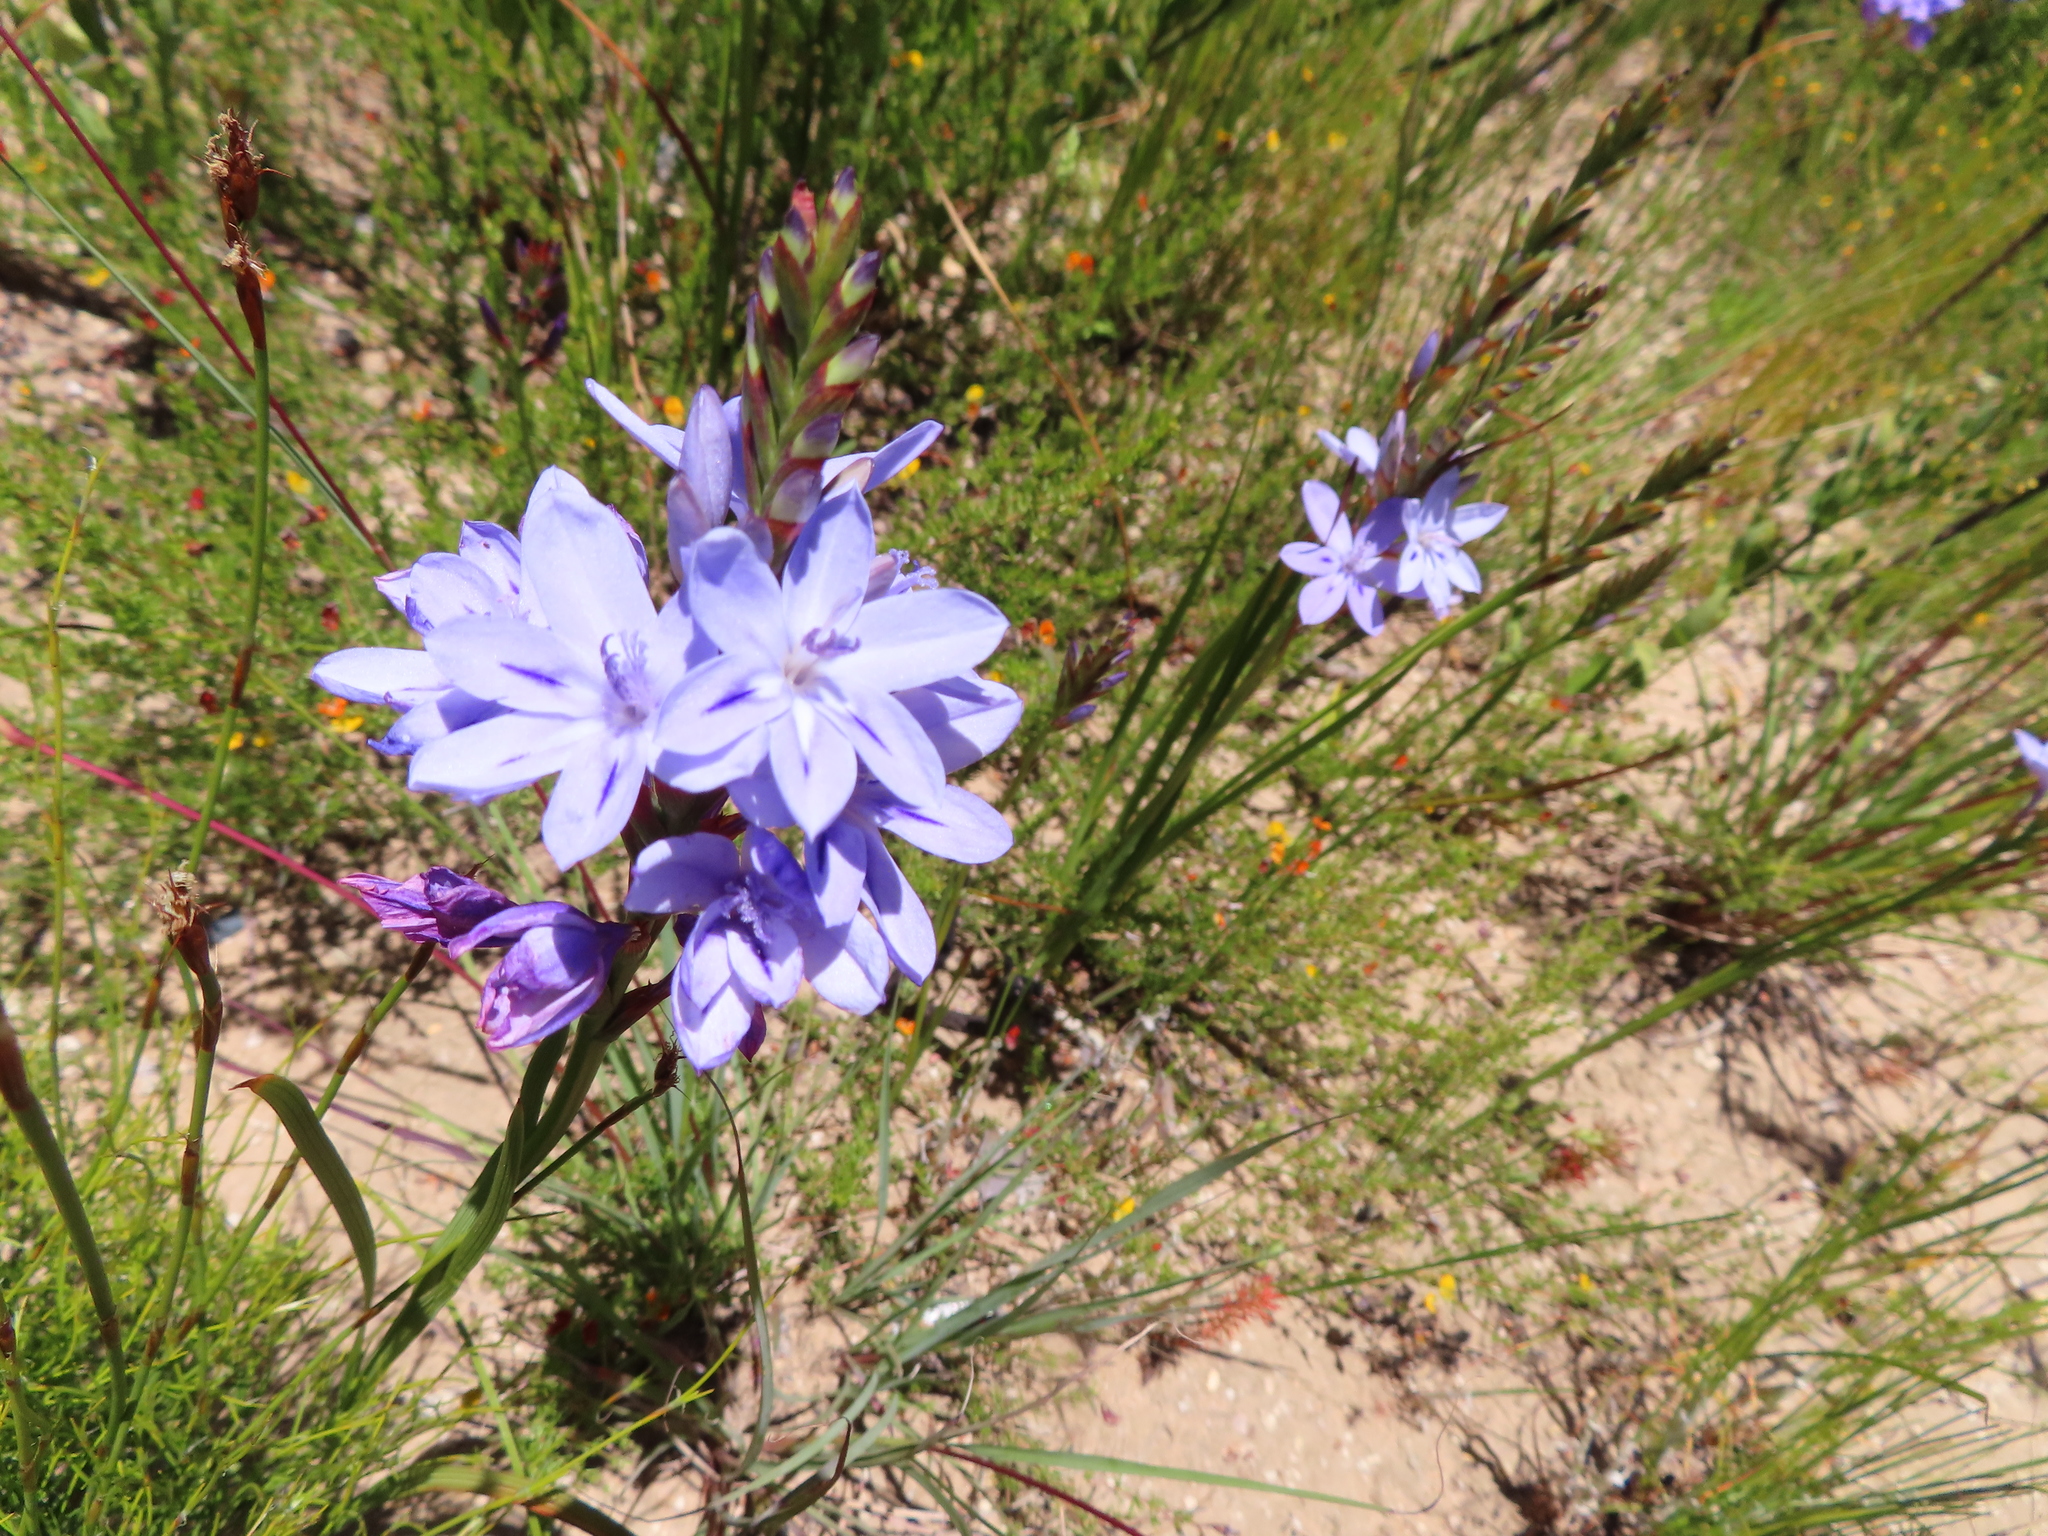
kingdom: Plantae
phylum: Tracheophyta
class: Liliopsida
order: Asparagales
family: Iridaceae
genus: Thereianthus
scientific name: Thereianthus spicatus
